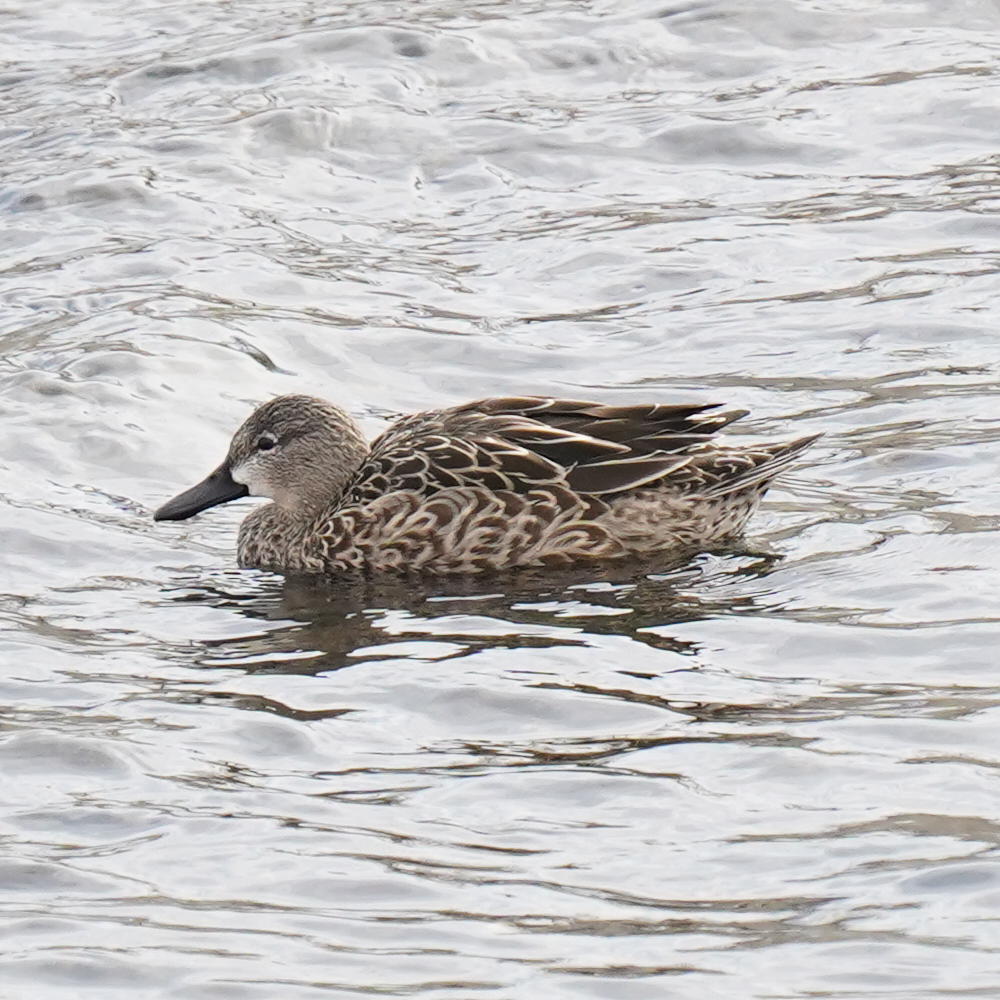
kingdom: Animalia
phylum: Chordata
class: Aves
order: Anseriformes
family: Anatidae
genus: Spatula
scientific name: Spatula discors
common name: Blue-winged teal
